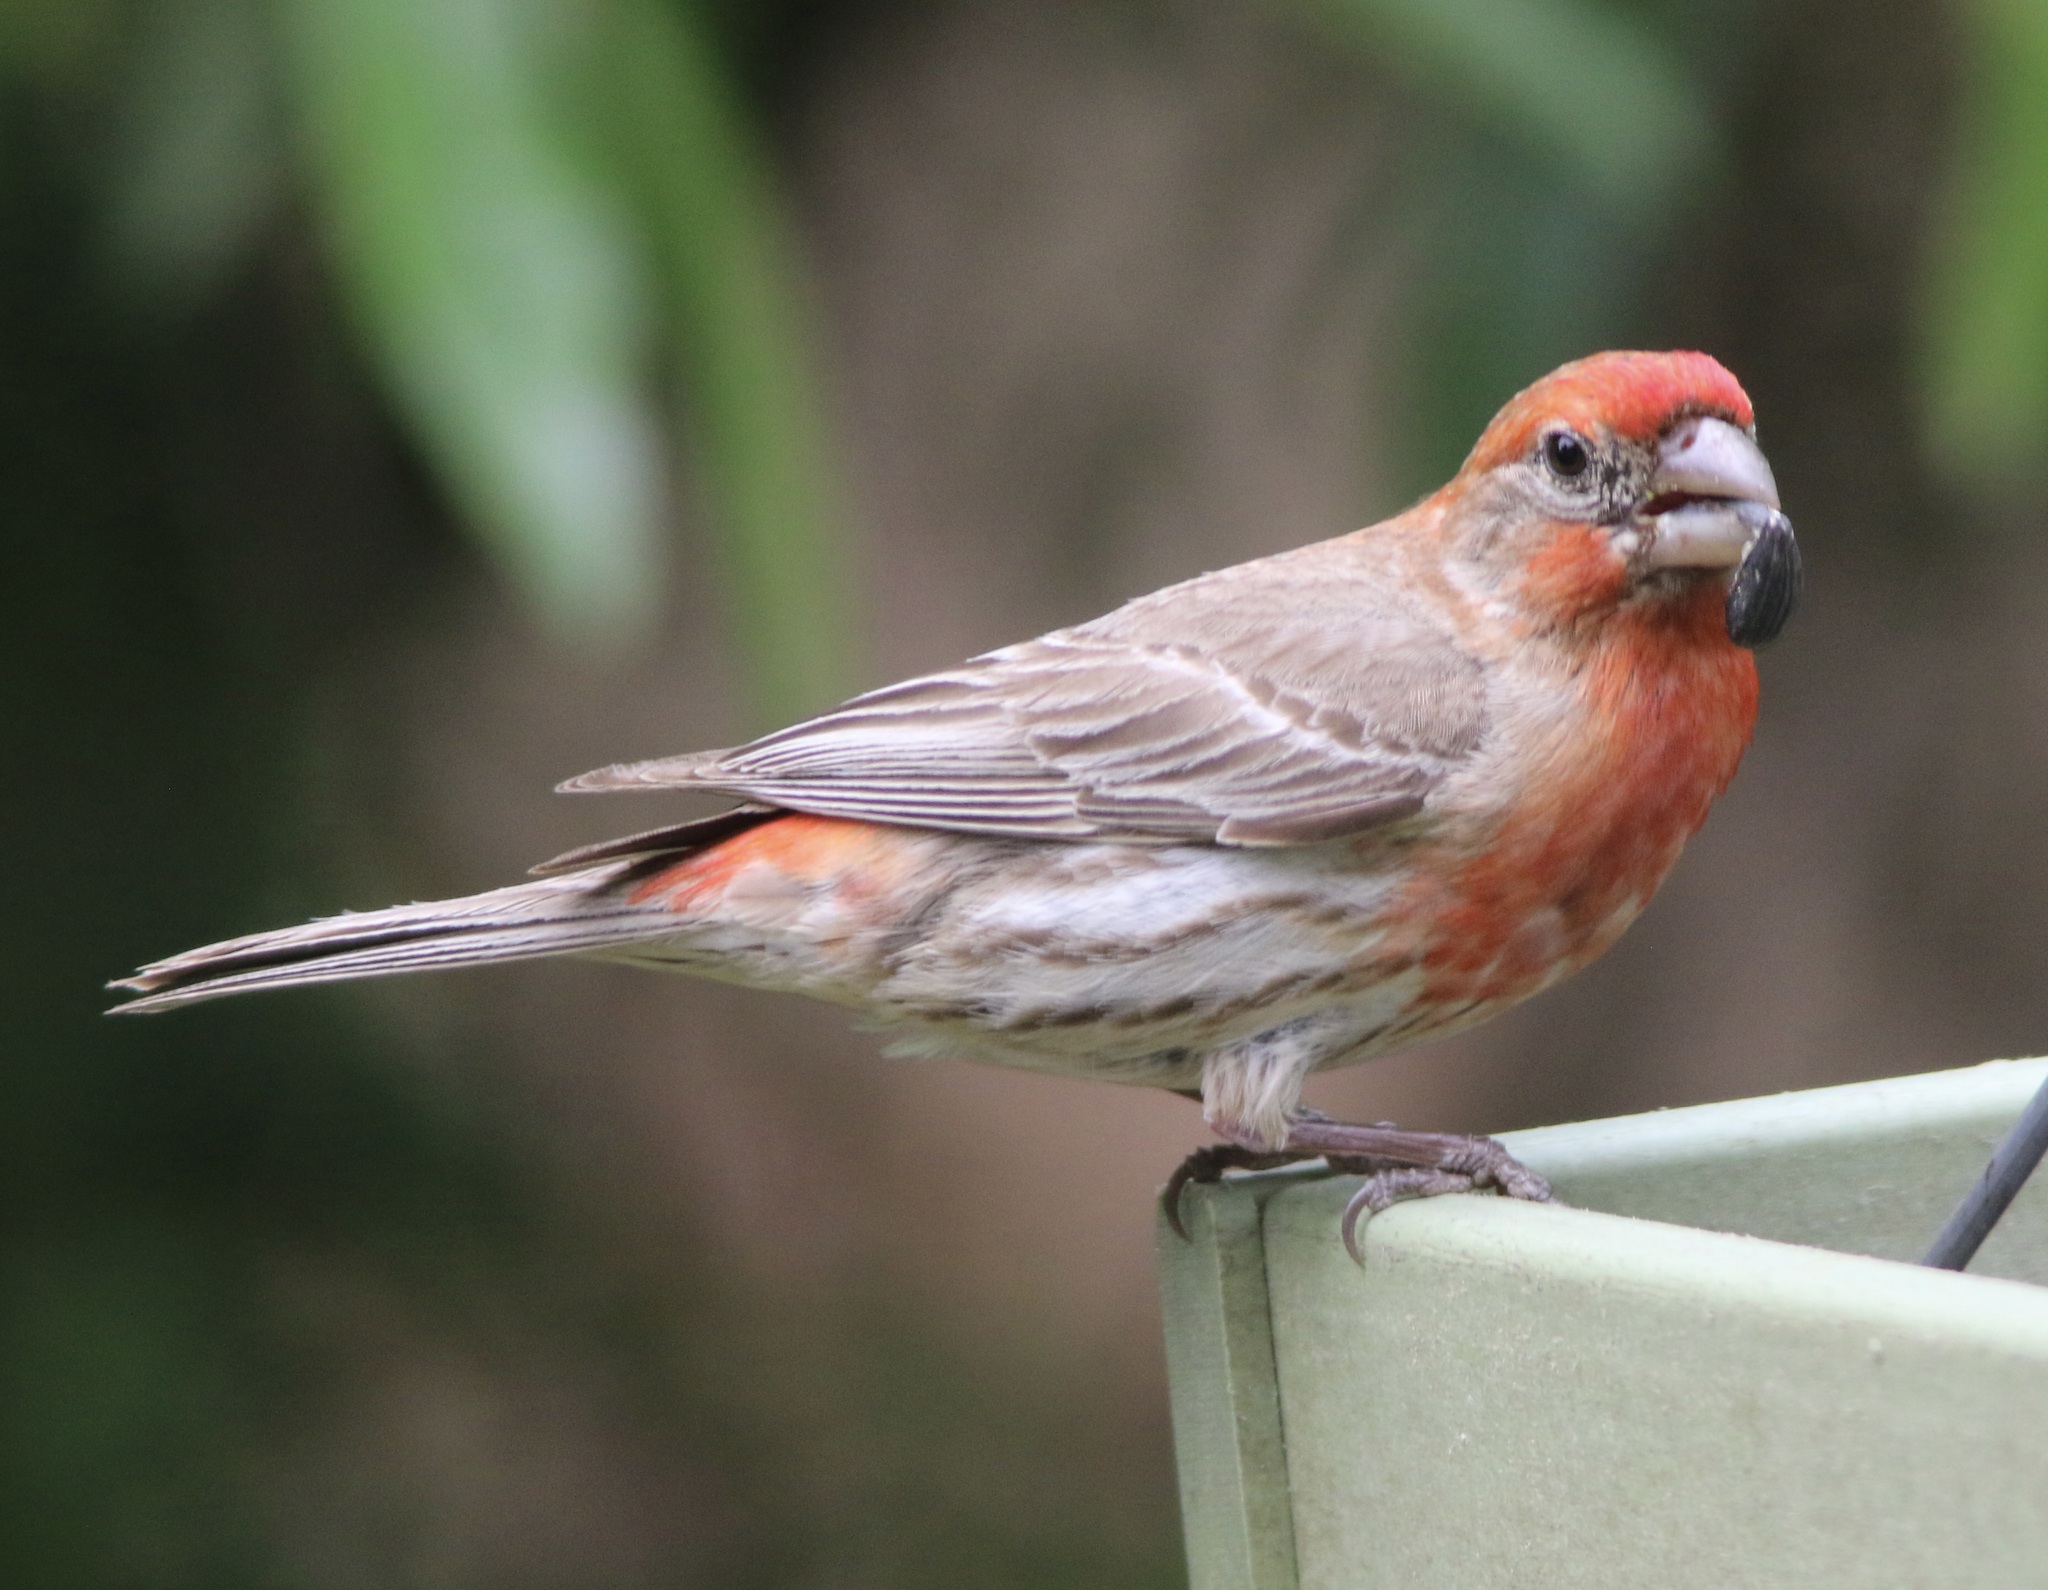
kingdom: Animalia
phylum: Chordata
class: Aves
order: Passeriformes
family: Fringillidae
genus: Haemorhous
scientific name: Haemorhous mexicanus
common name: House finch
